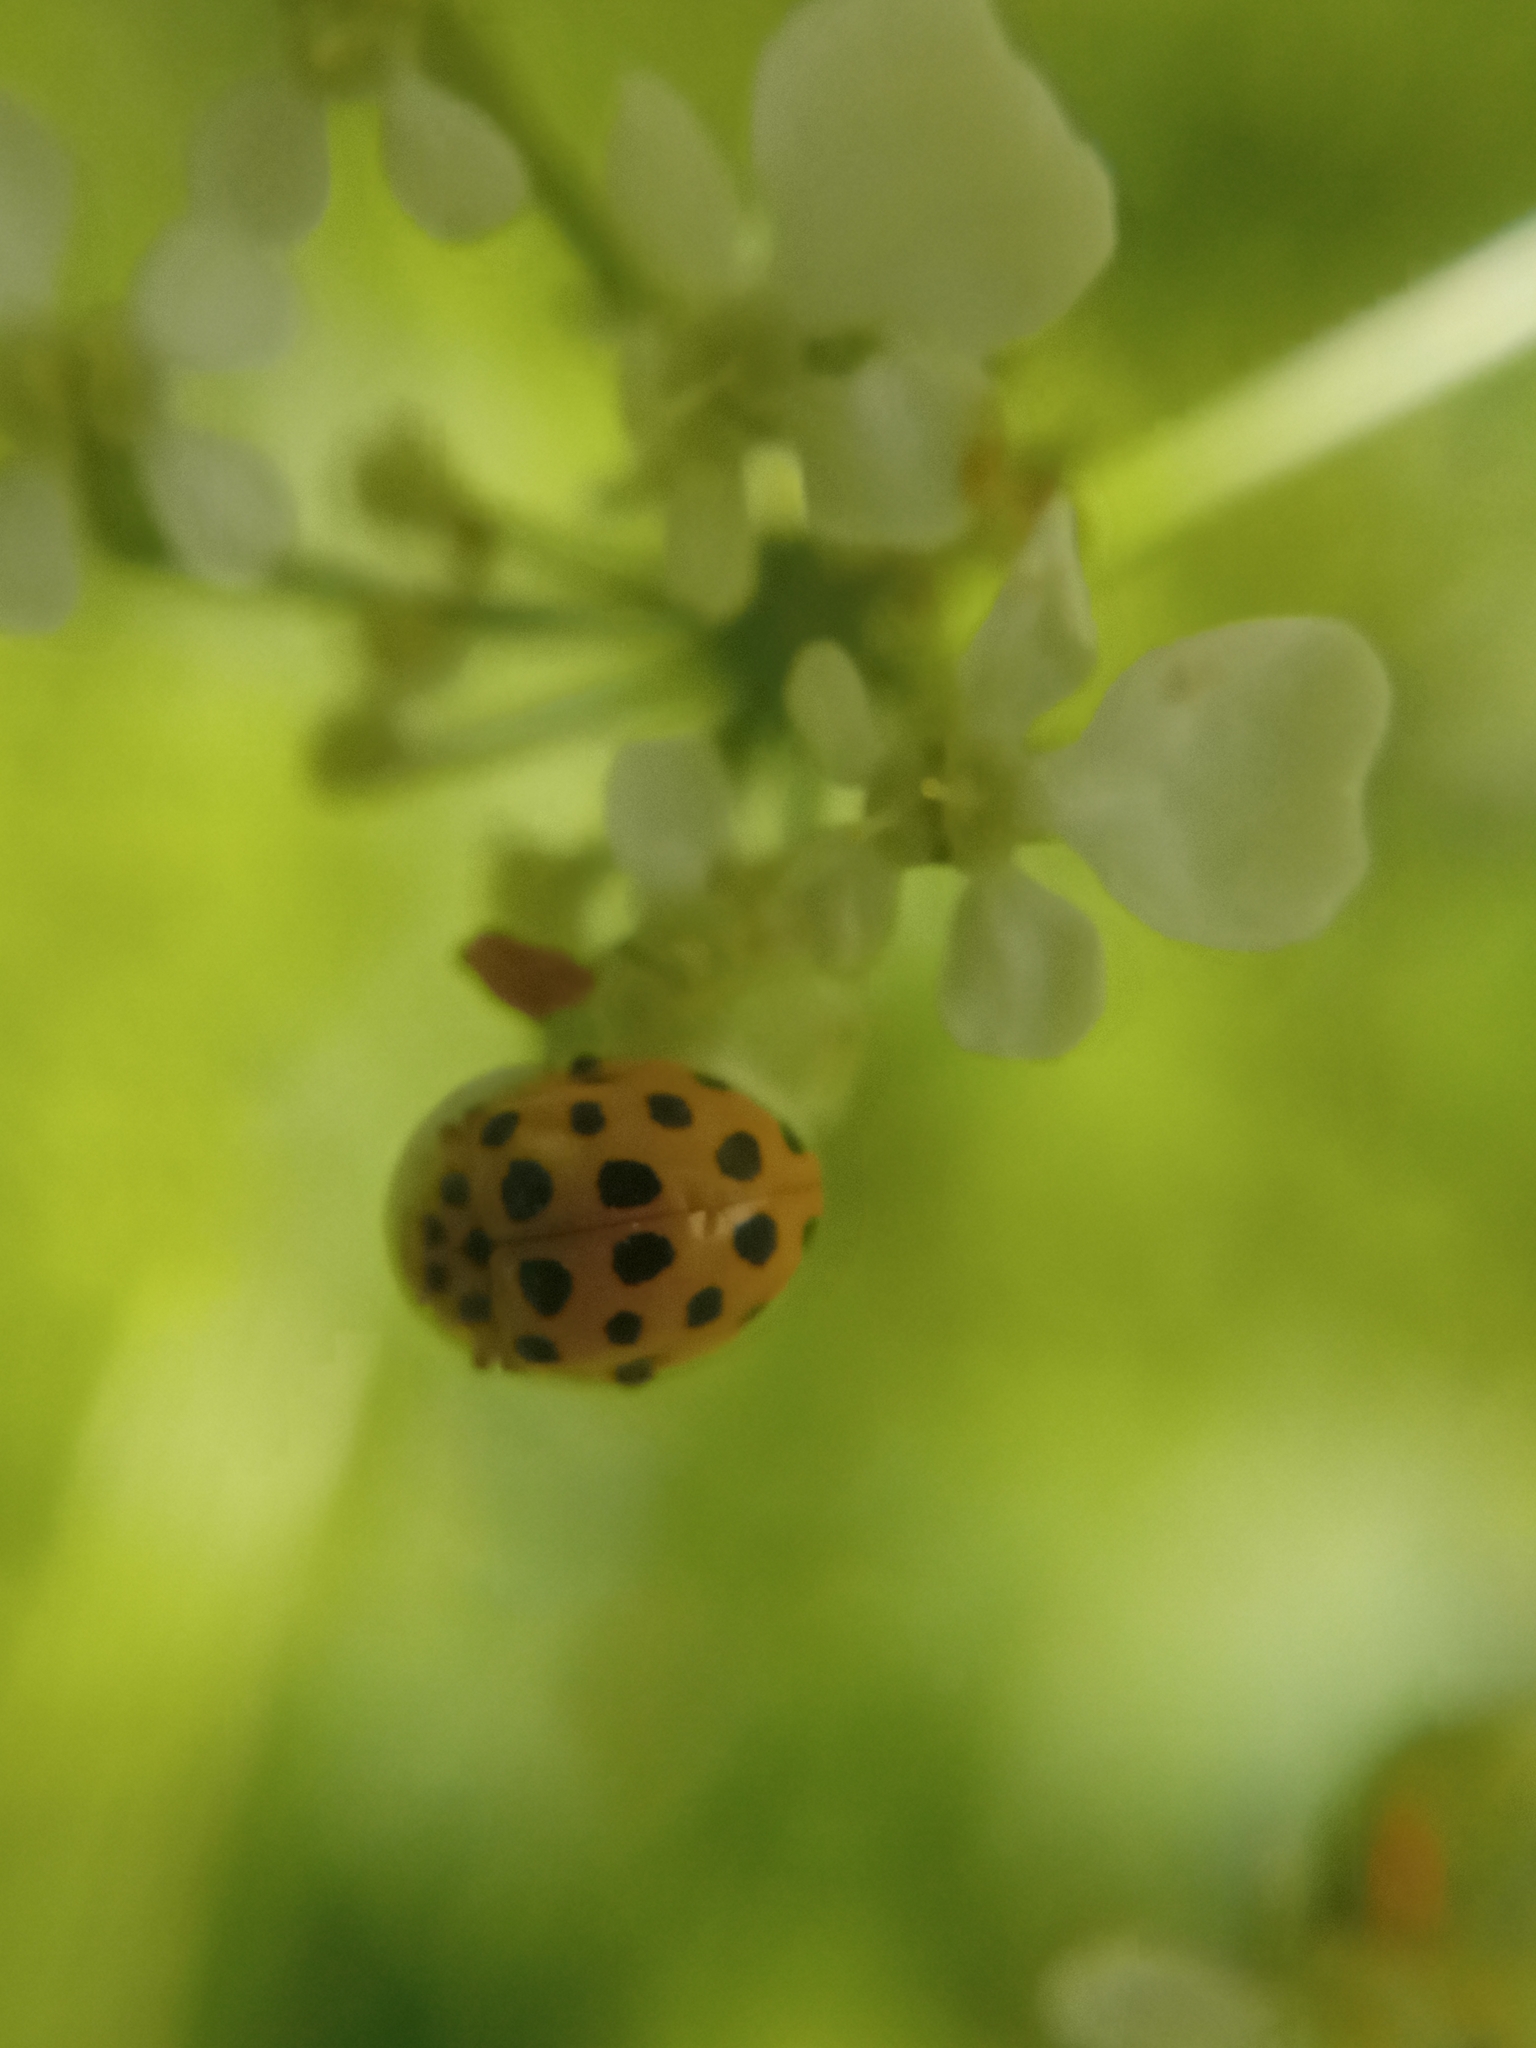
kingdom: Animalia
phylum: Arthropoda
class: Insecta
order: Coleoptera
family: Coccinellidae
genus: Psyllobora
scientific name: Psyllobora vigintiduopunctata
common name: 22-spot ladybird
